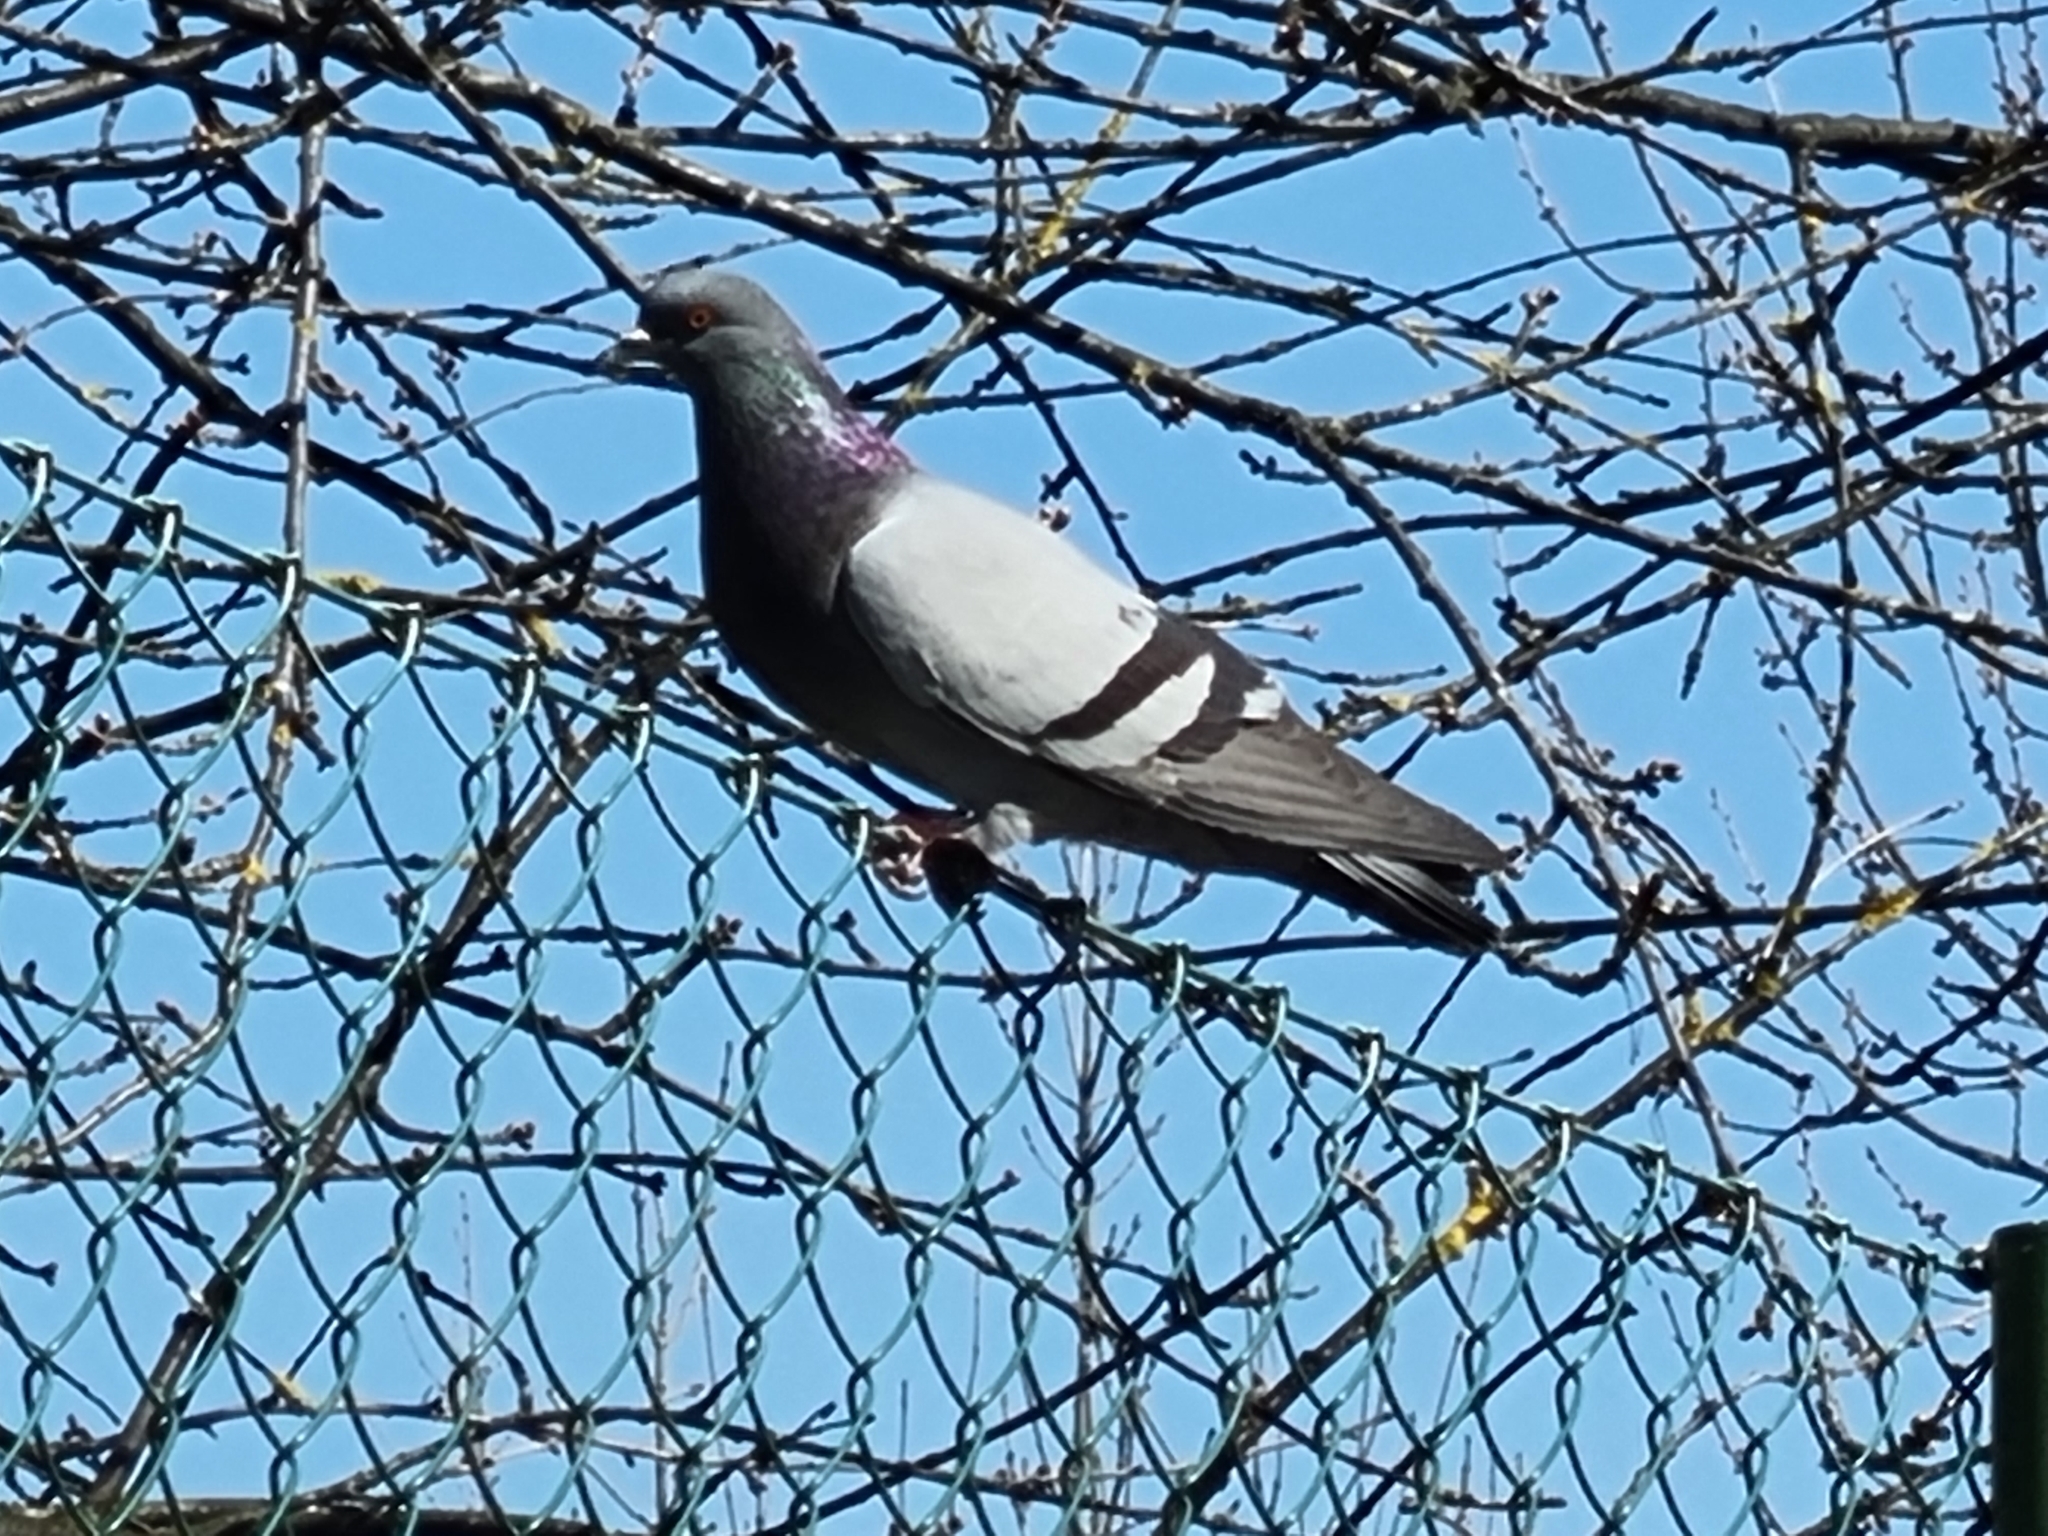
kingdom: Animalia
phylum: Chordata
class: Aves
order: Columbiformes
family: Columbidae
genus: Columba
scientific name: Columba livia
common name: Rock pigeon
